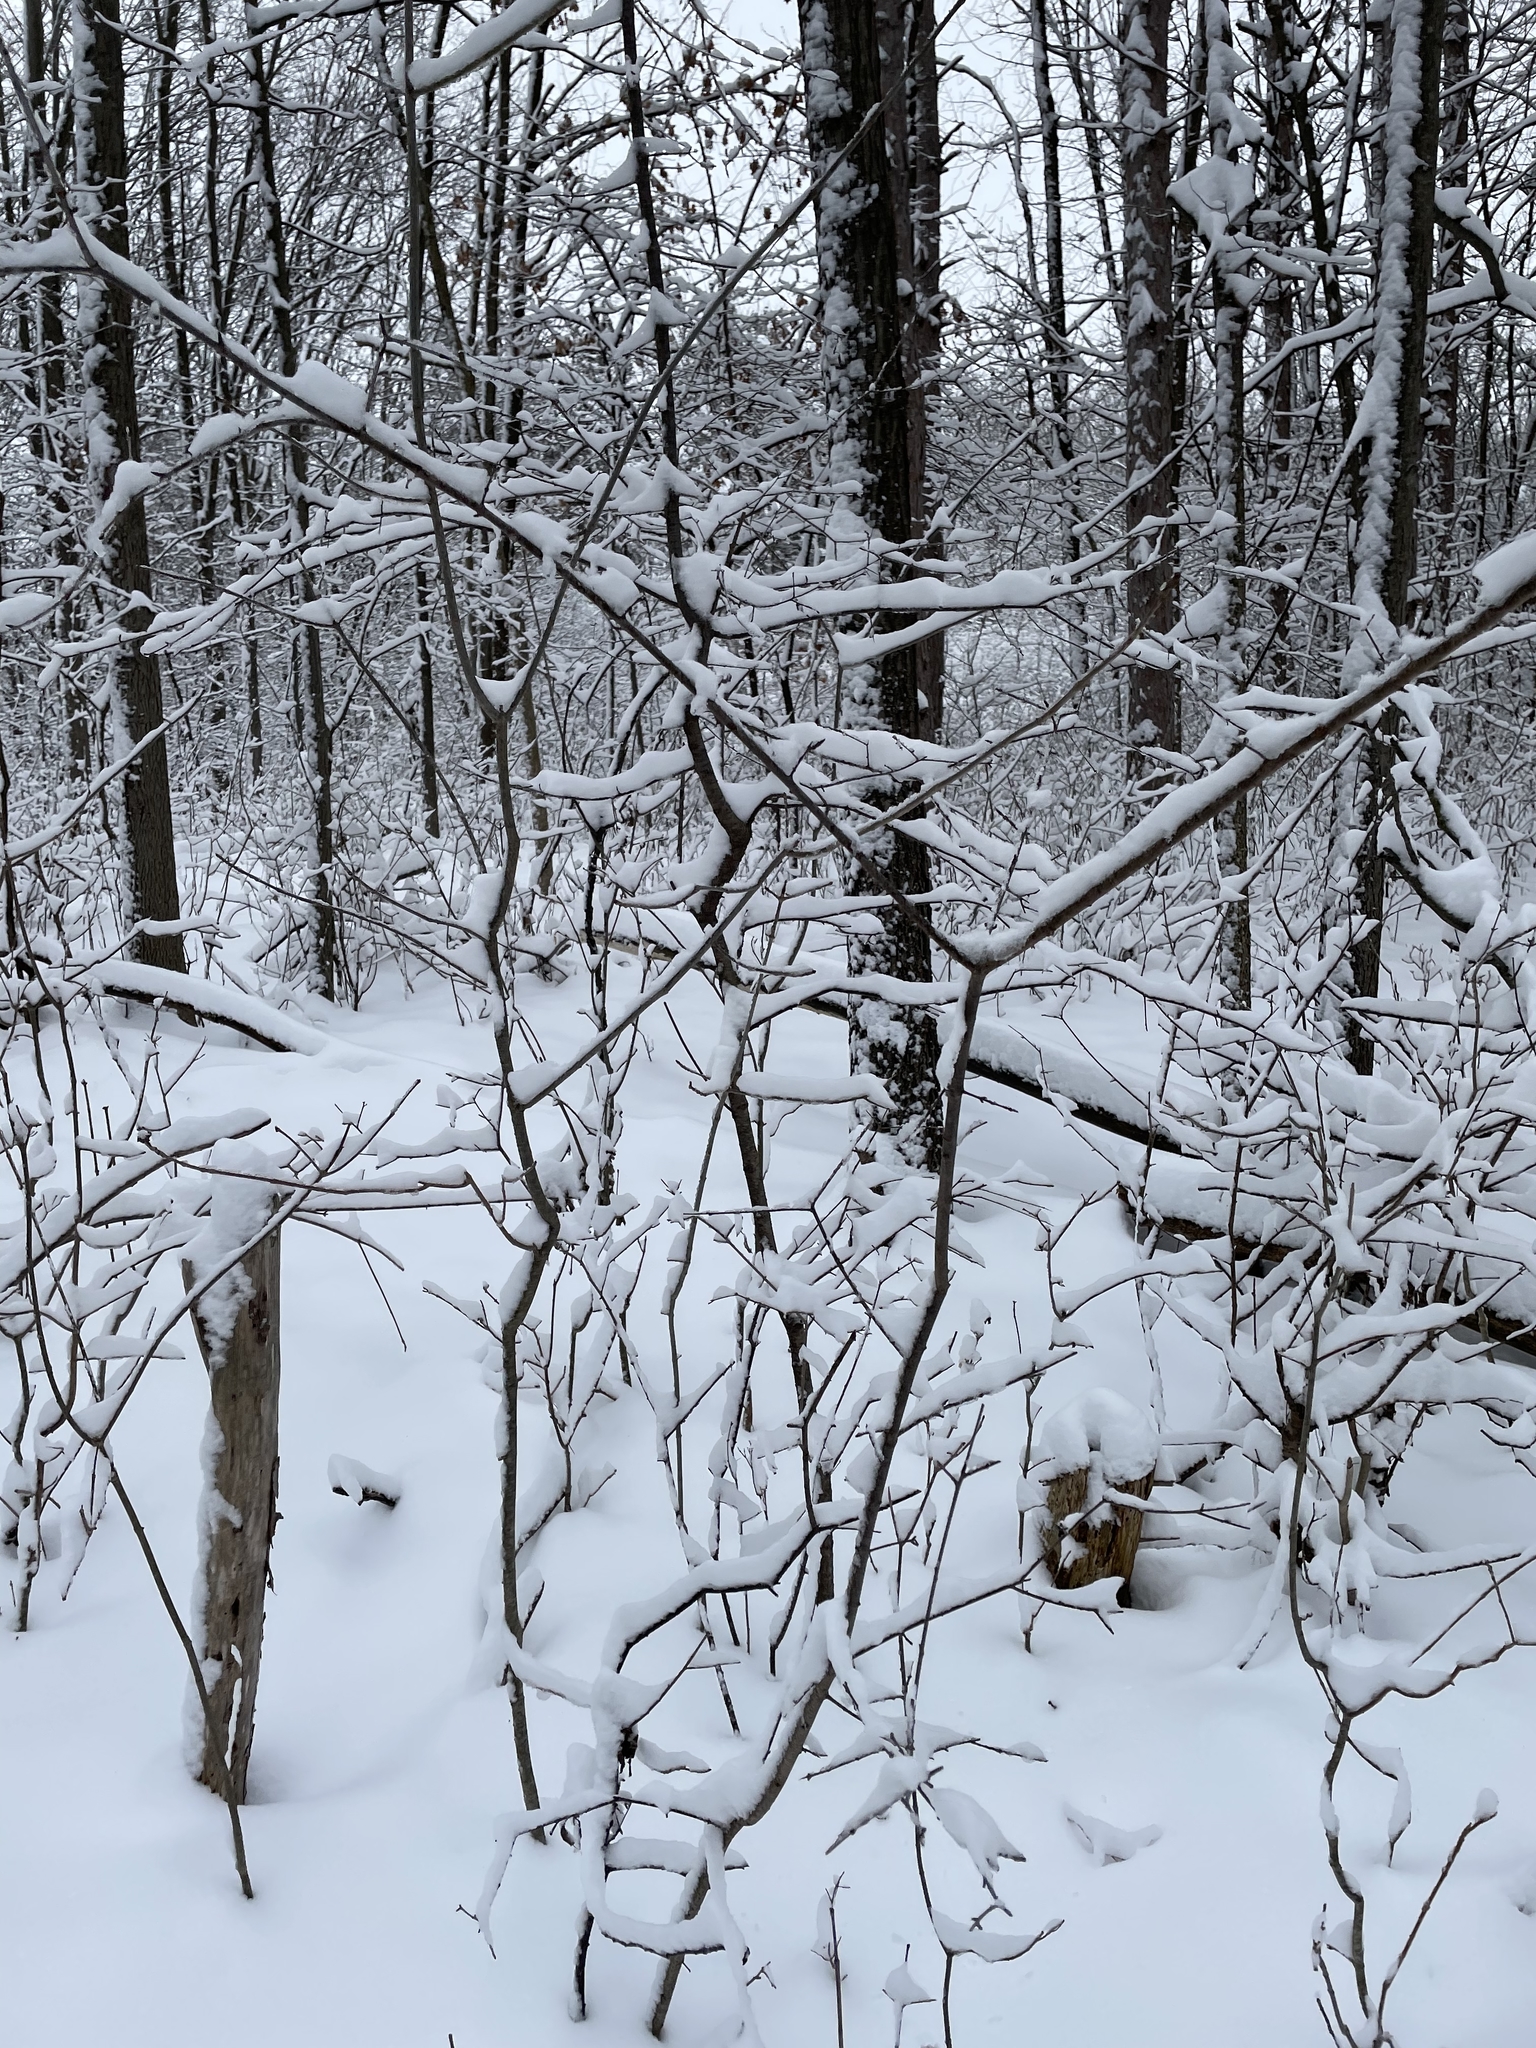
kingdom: Plantae
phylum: Tracheophyta
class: Magnoliopsida
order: Rosales
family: Rhamnaceae
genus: Rhamnus
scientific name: Rhamnus cathartica
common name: Common buckthorn
